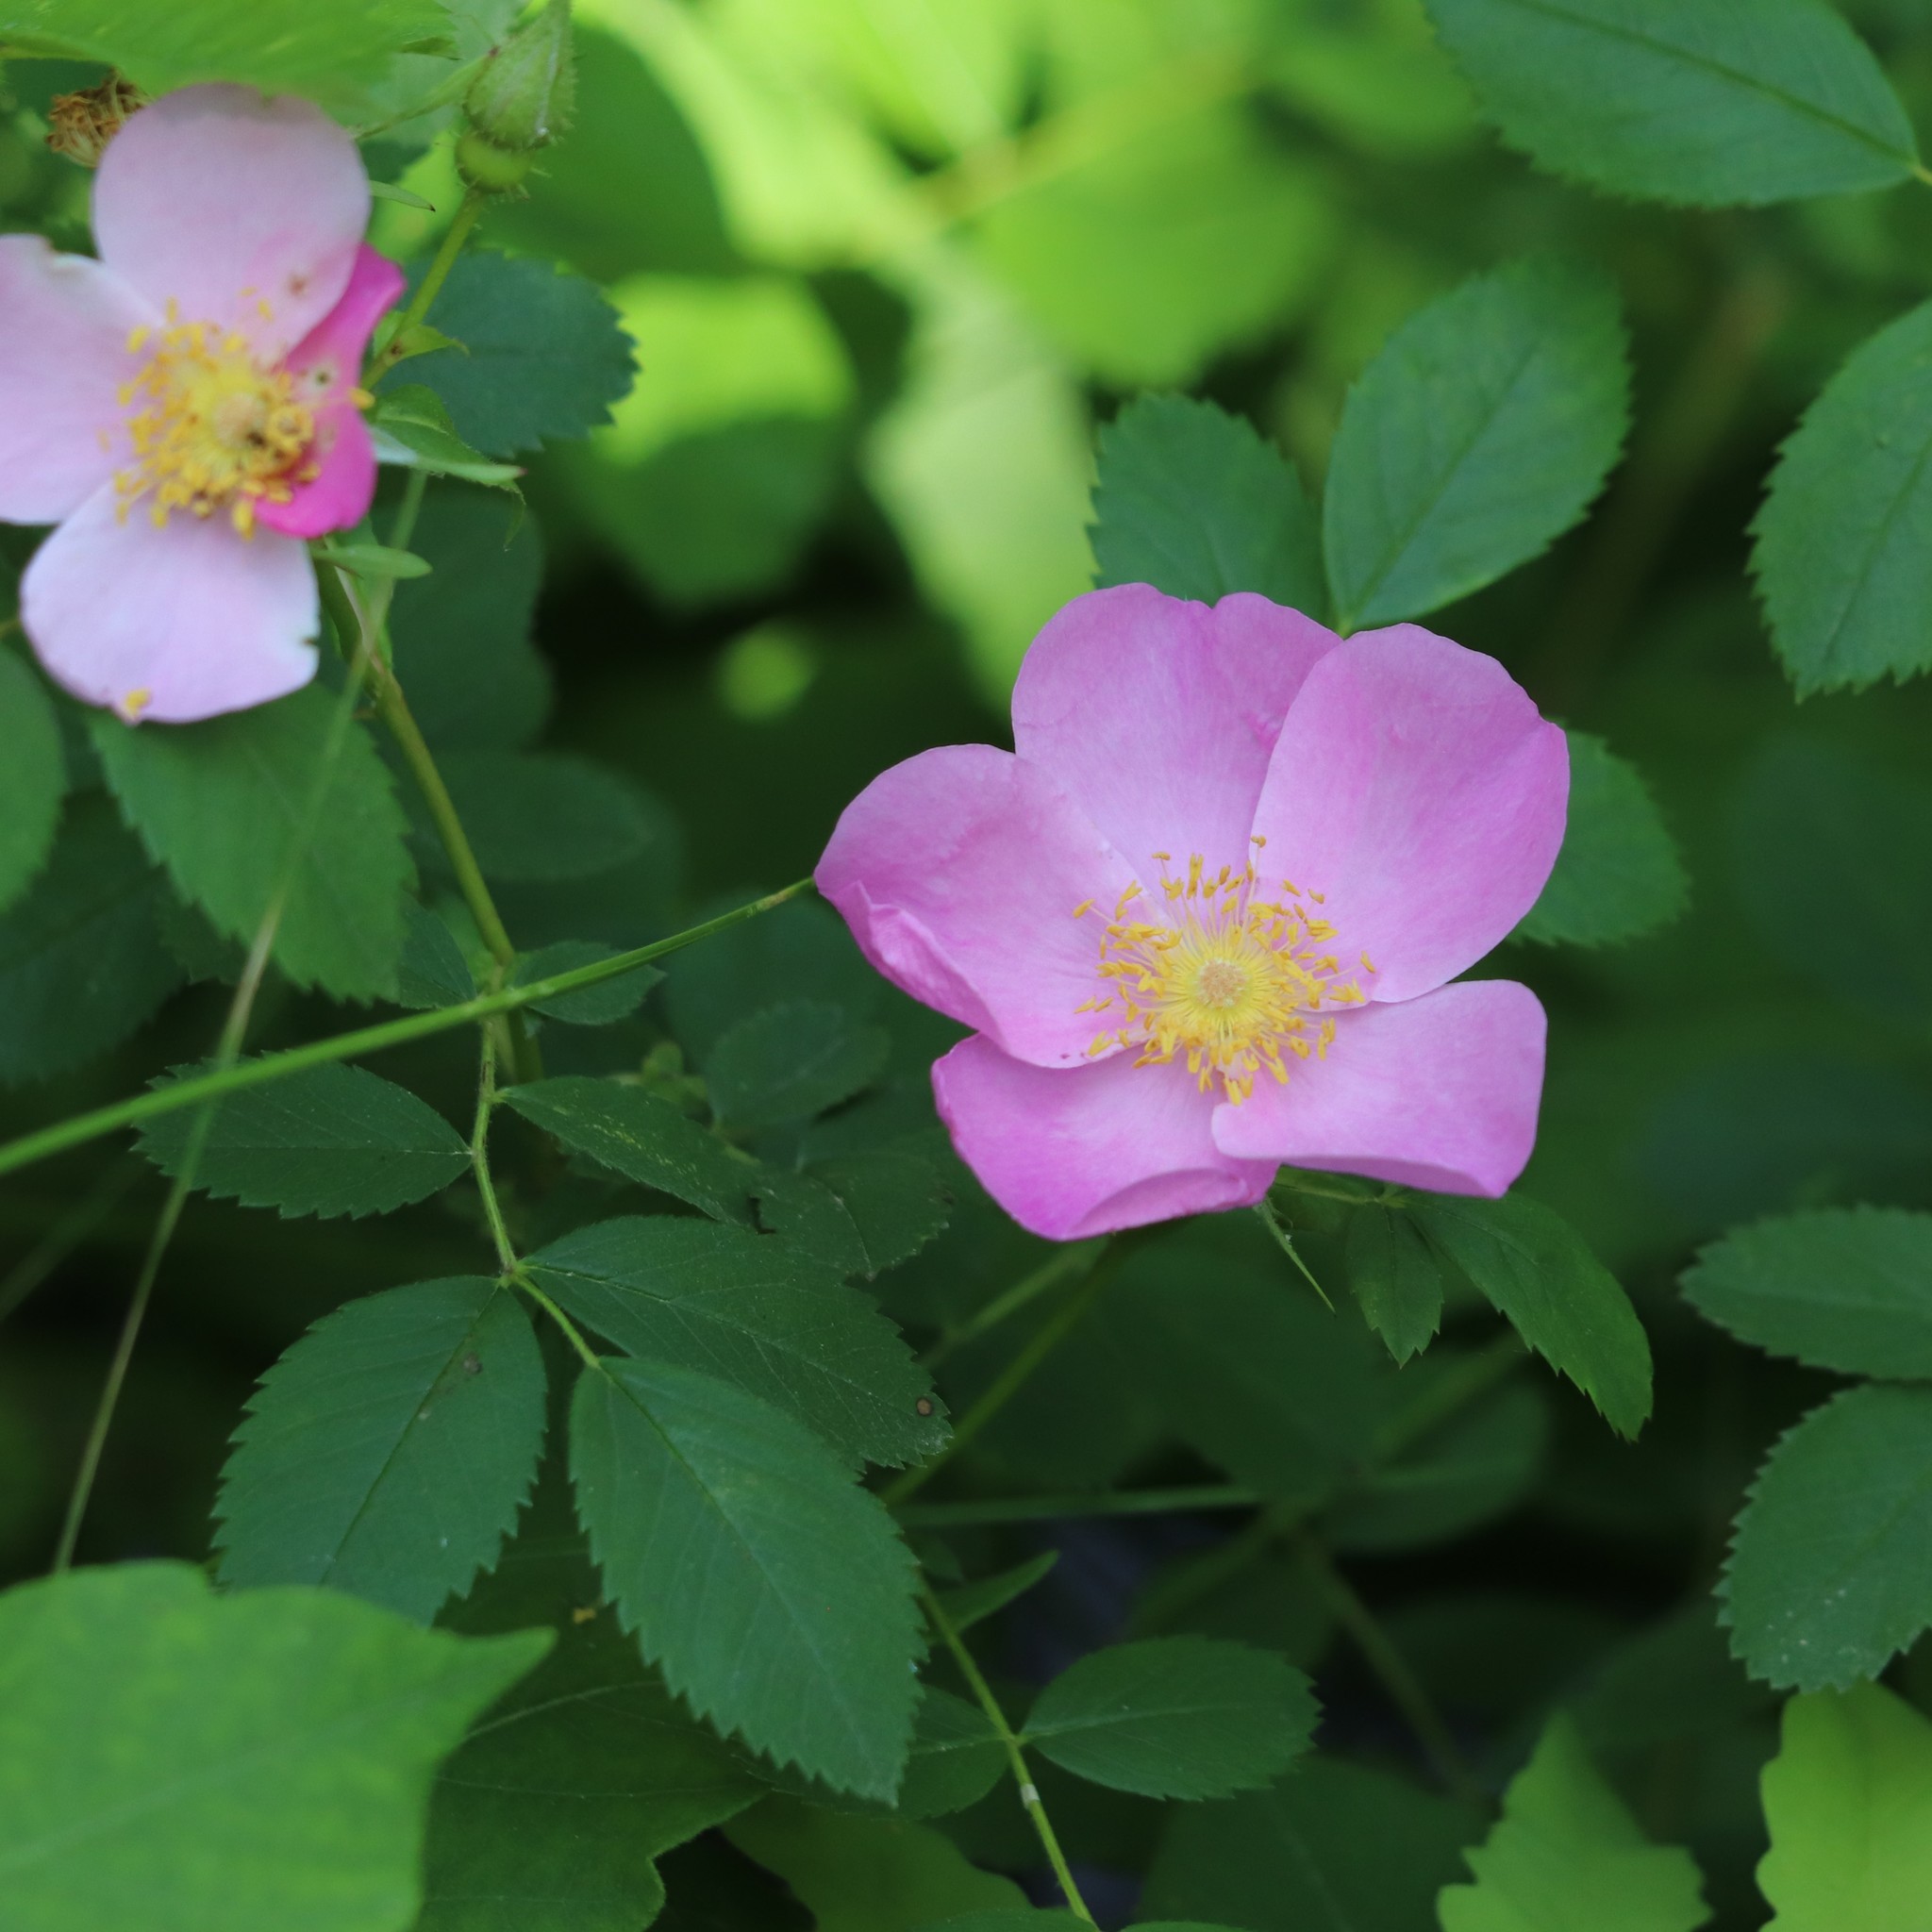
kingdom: Plantae
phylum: Tracheophyta
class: Magnoliopsida
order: Rosales
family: Rosaceae
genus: Rosa
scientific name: Rosa virginiana
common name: Virginian rose
